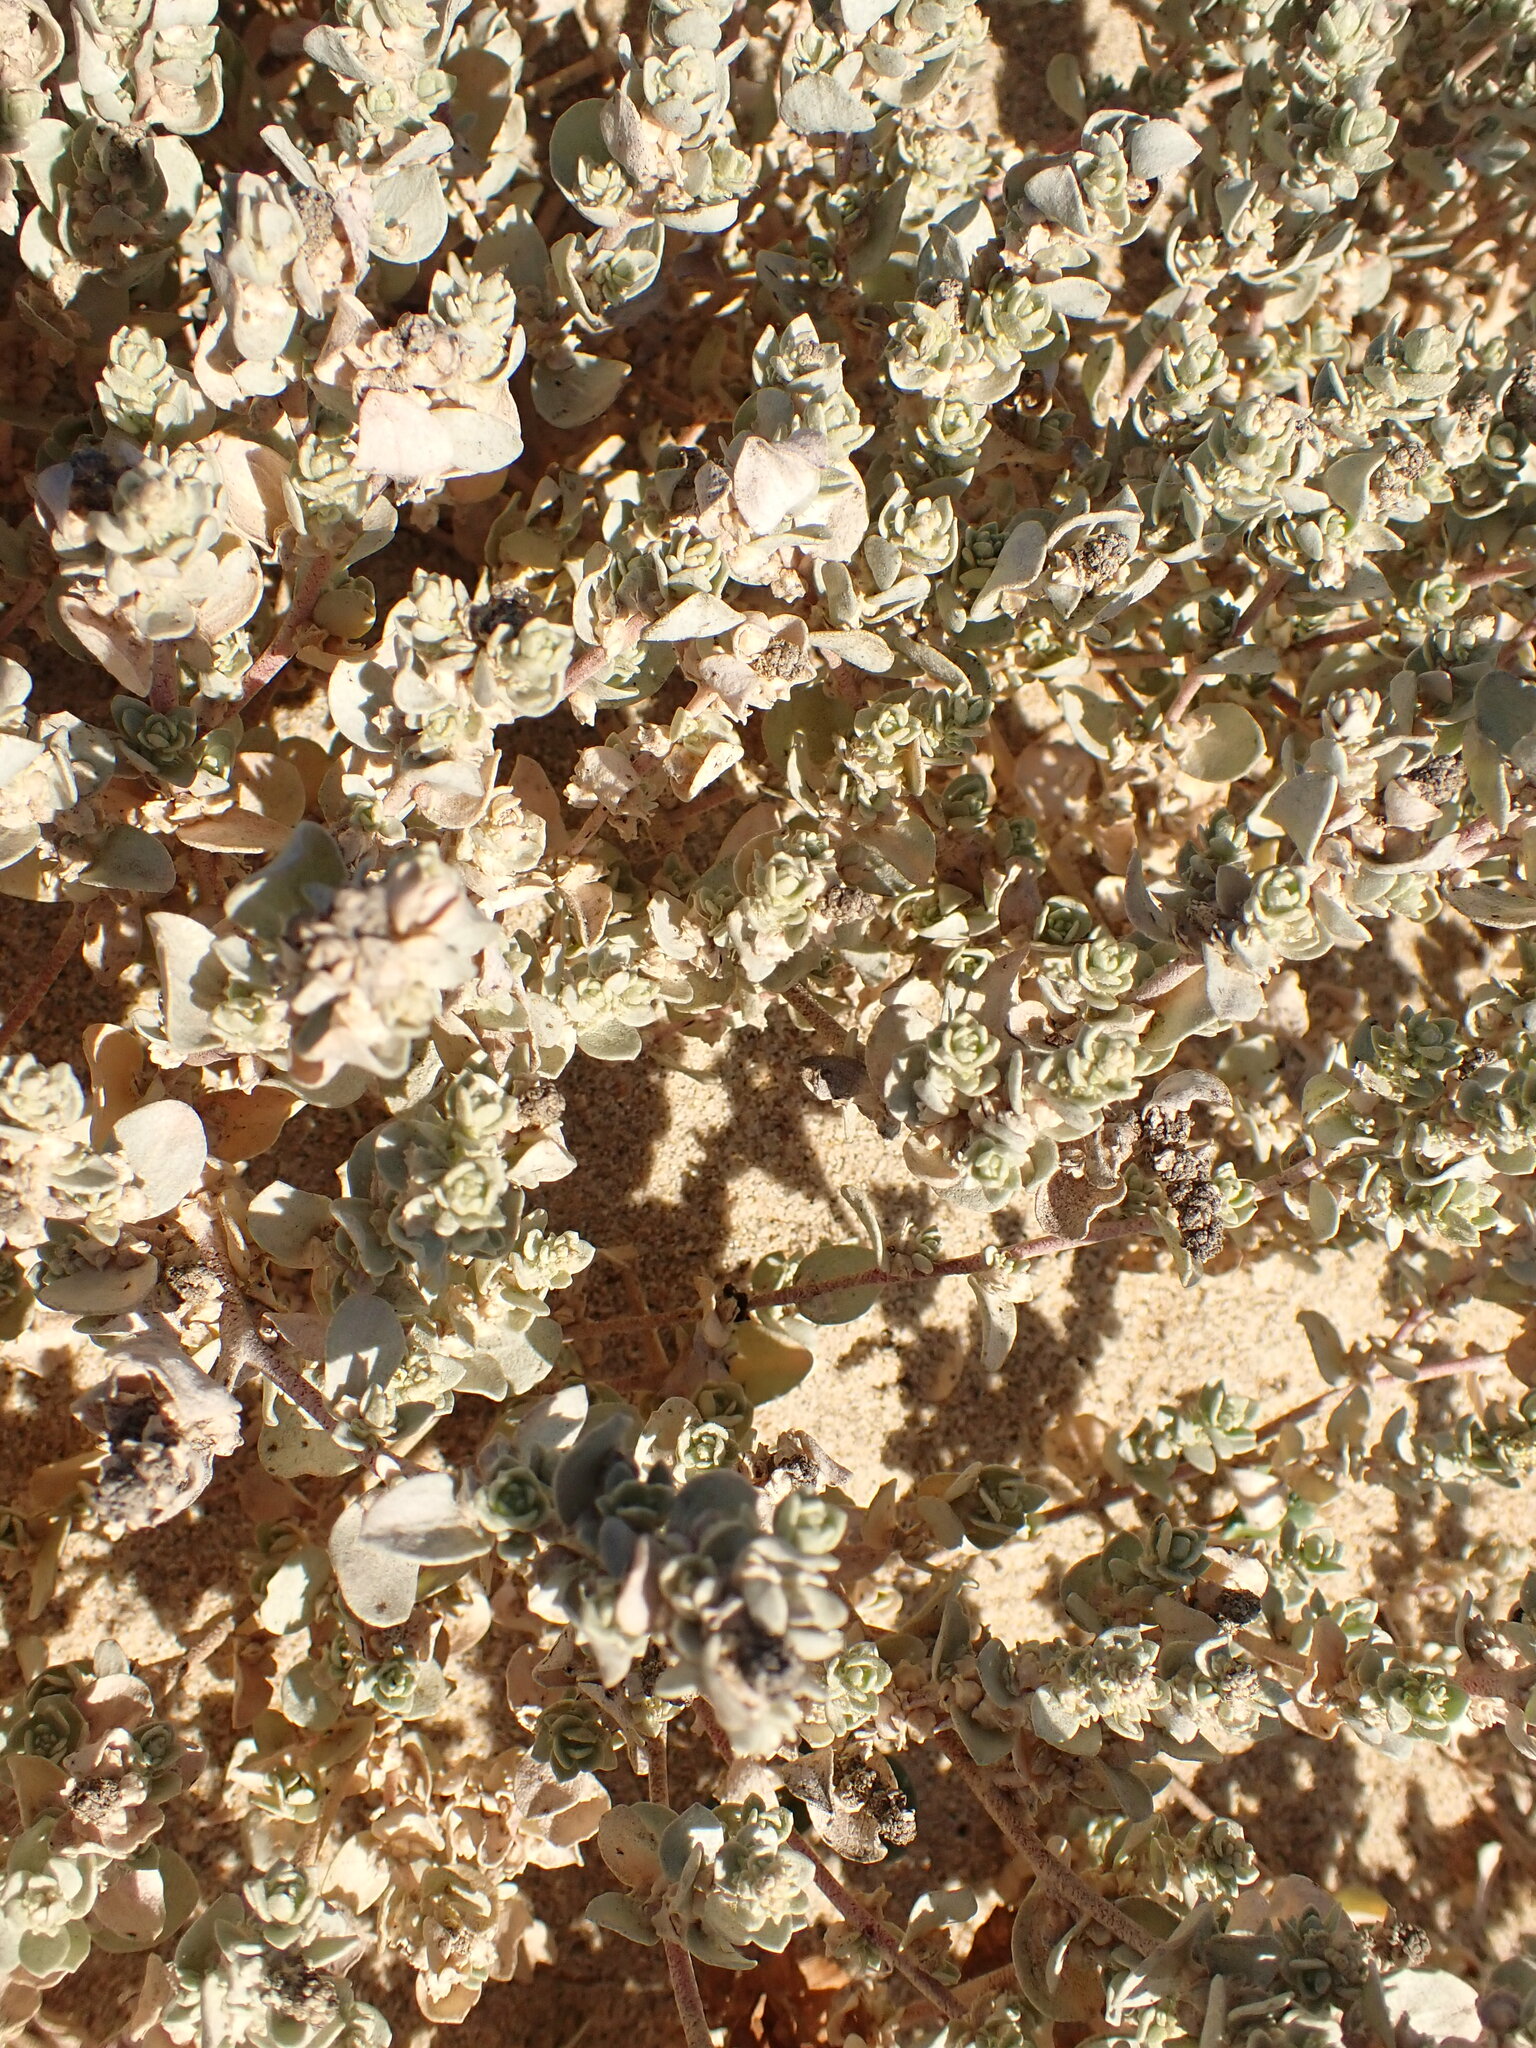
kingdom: Plantae
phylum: Tracheophyta
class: Magnoliopsida
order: Caryophyllales
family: Amaranthaceae
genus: Atriplex
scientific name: Atriplex leucophylla
